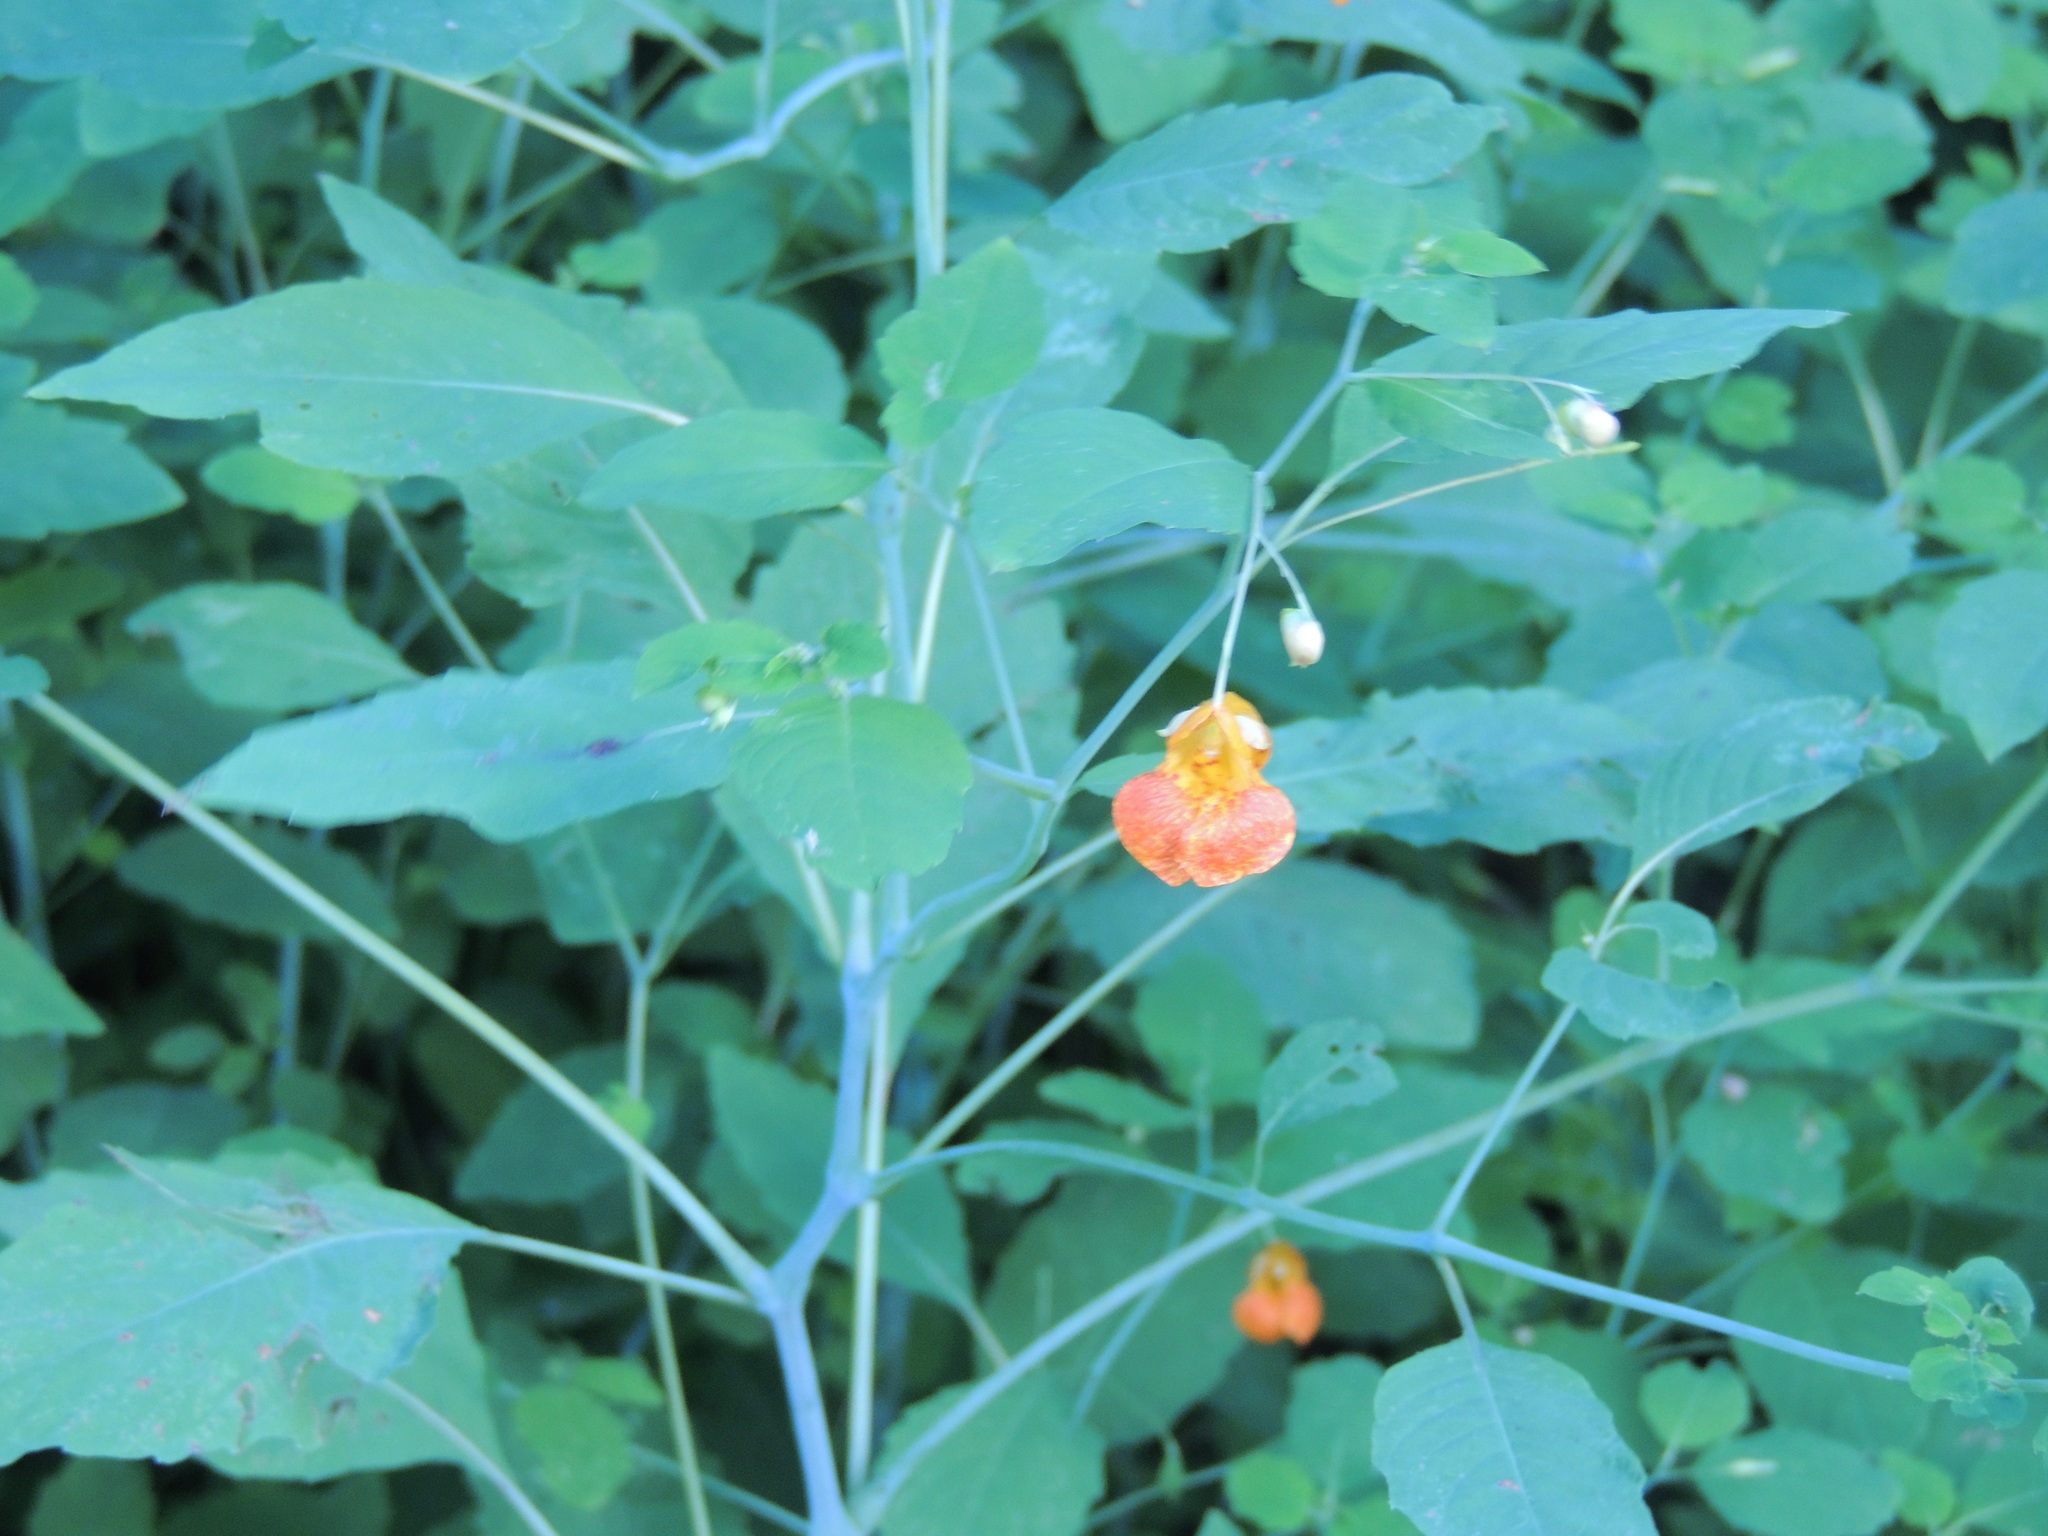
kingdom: Plantae
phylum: Tracheophyta
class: Magnoliopsida
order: Ericales
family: Balsaminaceae
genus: Impatiens
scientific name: Impatiens capensis
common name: Orange balsam
